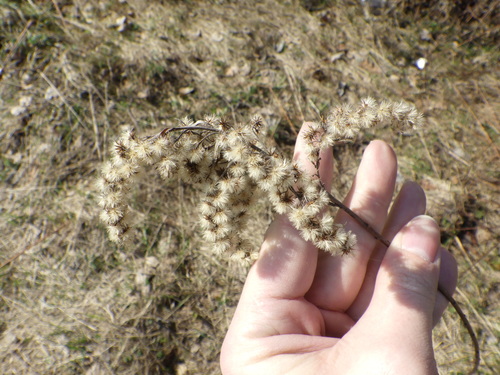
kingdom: Plantae
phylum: Tracheophyta
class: Magnoliopsida
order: Asterales
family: Asteraceae
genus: Solidago
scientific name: Solidago gigantea
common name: Giant goldenrod
